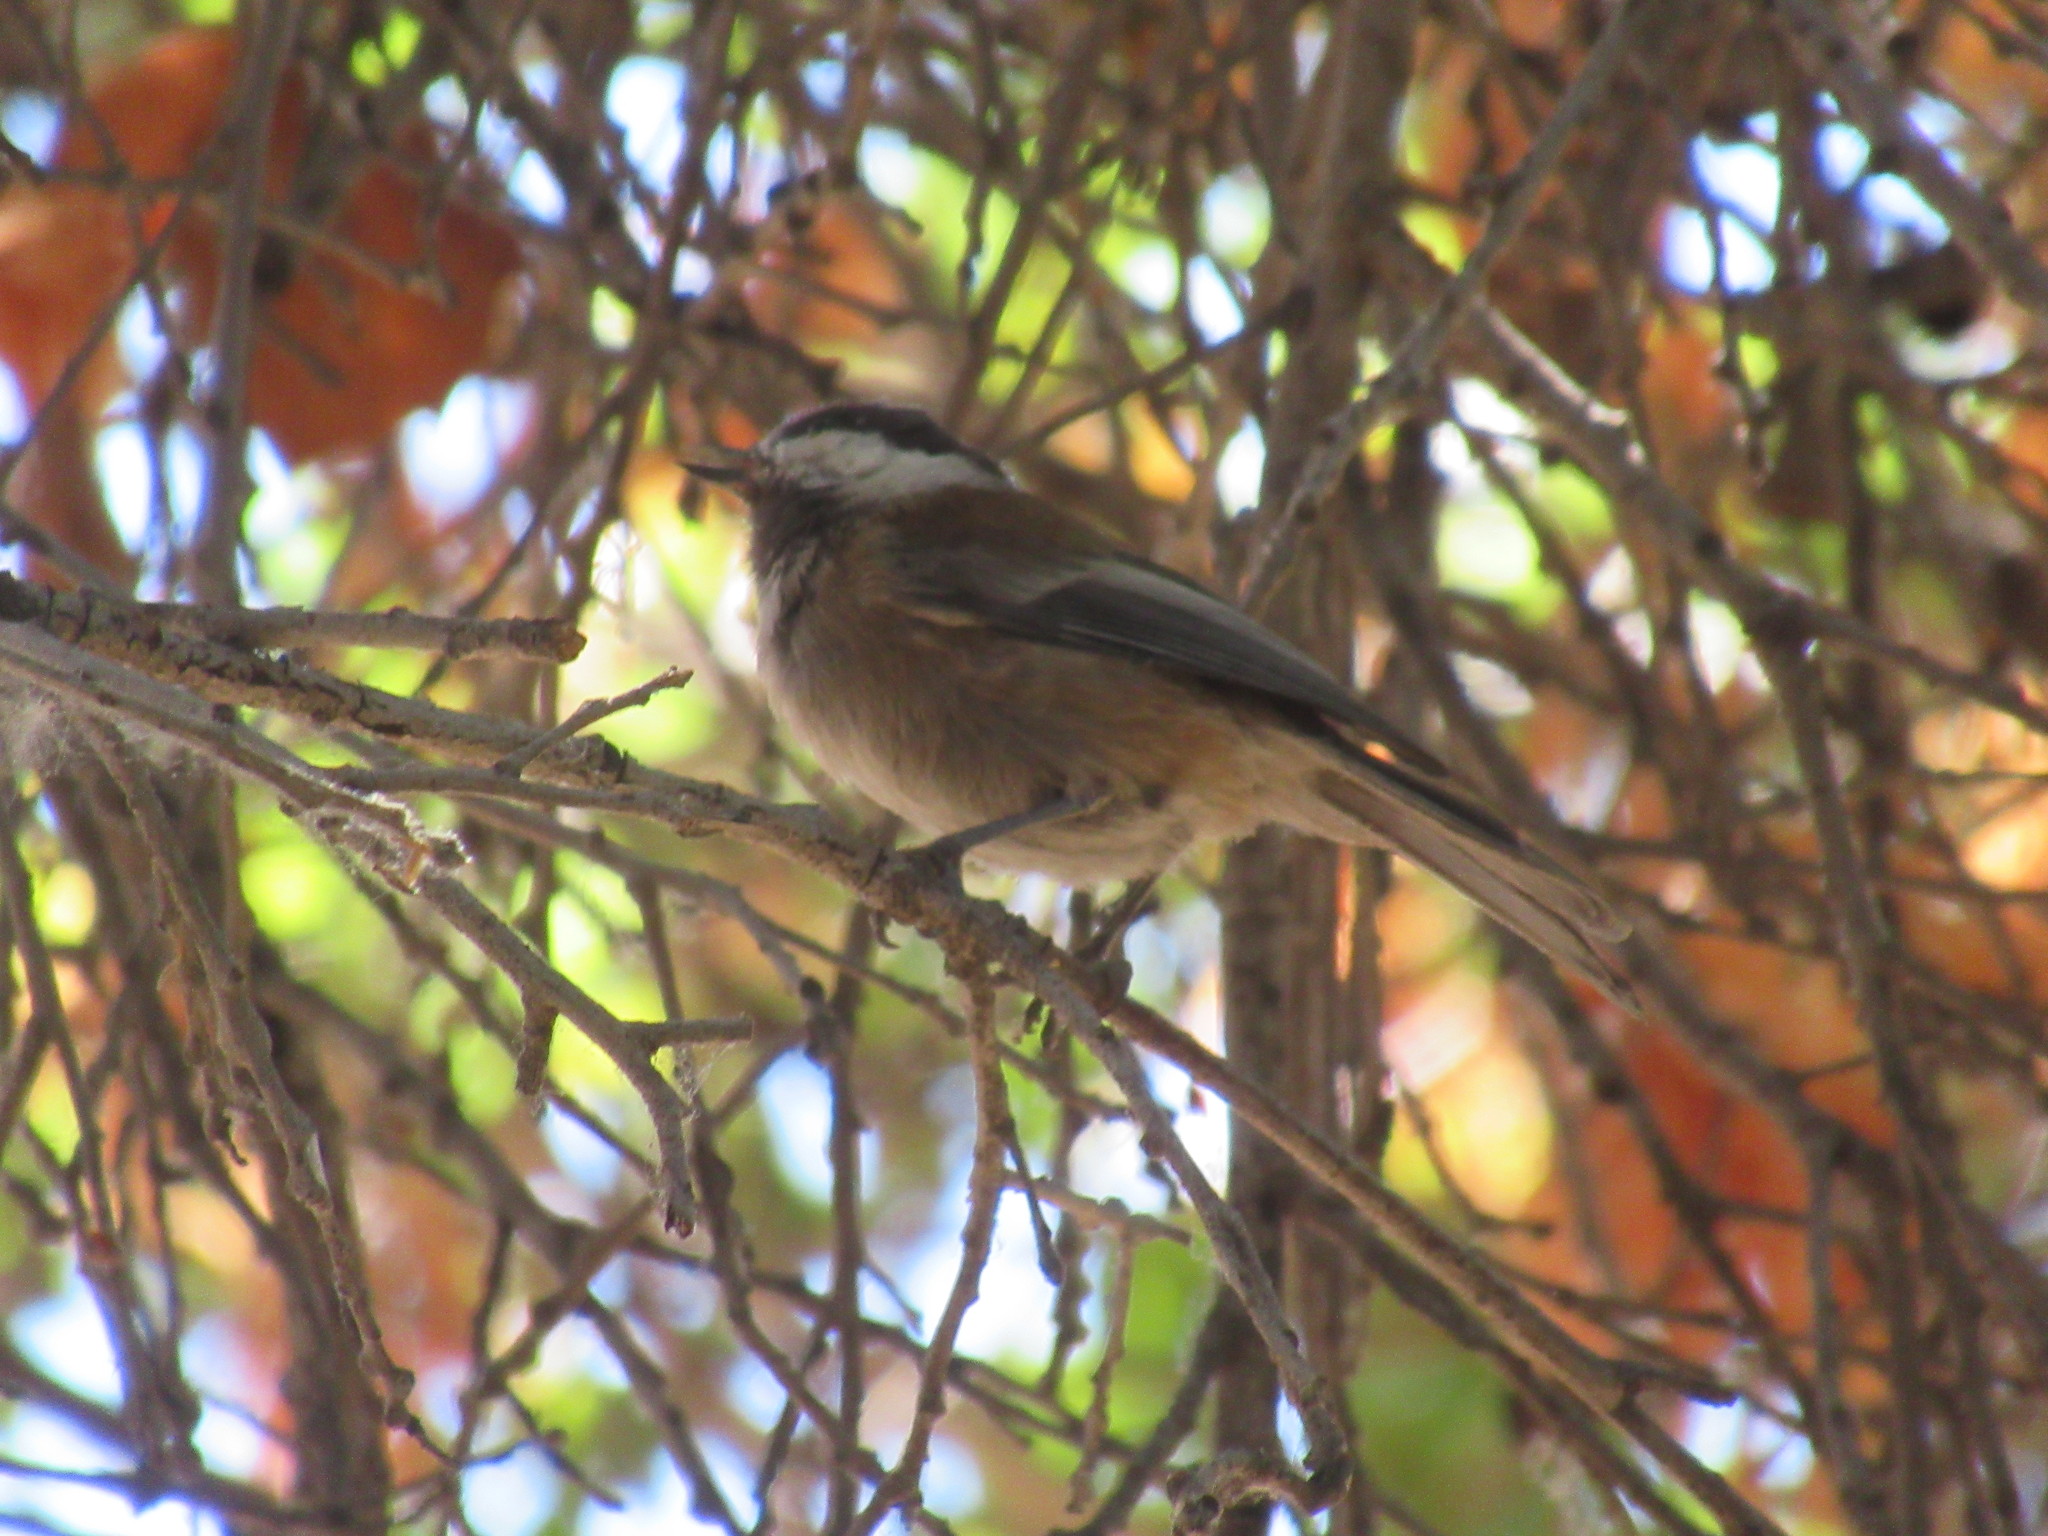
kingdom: Animalia
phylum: Chordata
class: Aves
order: Passeriformes
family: Paridae
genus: Poecile
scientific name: Poecile rufescens
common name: Chestnut-backed chickadee
